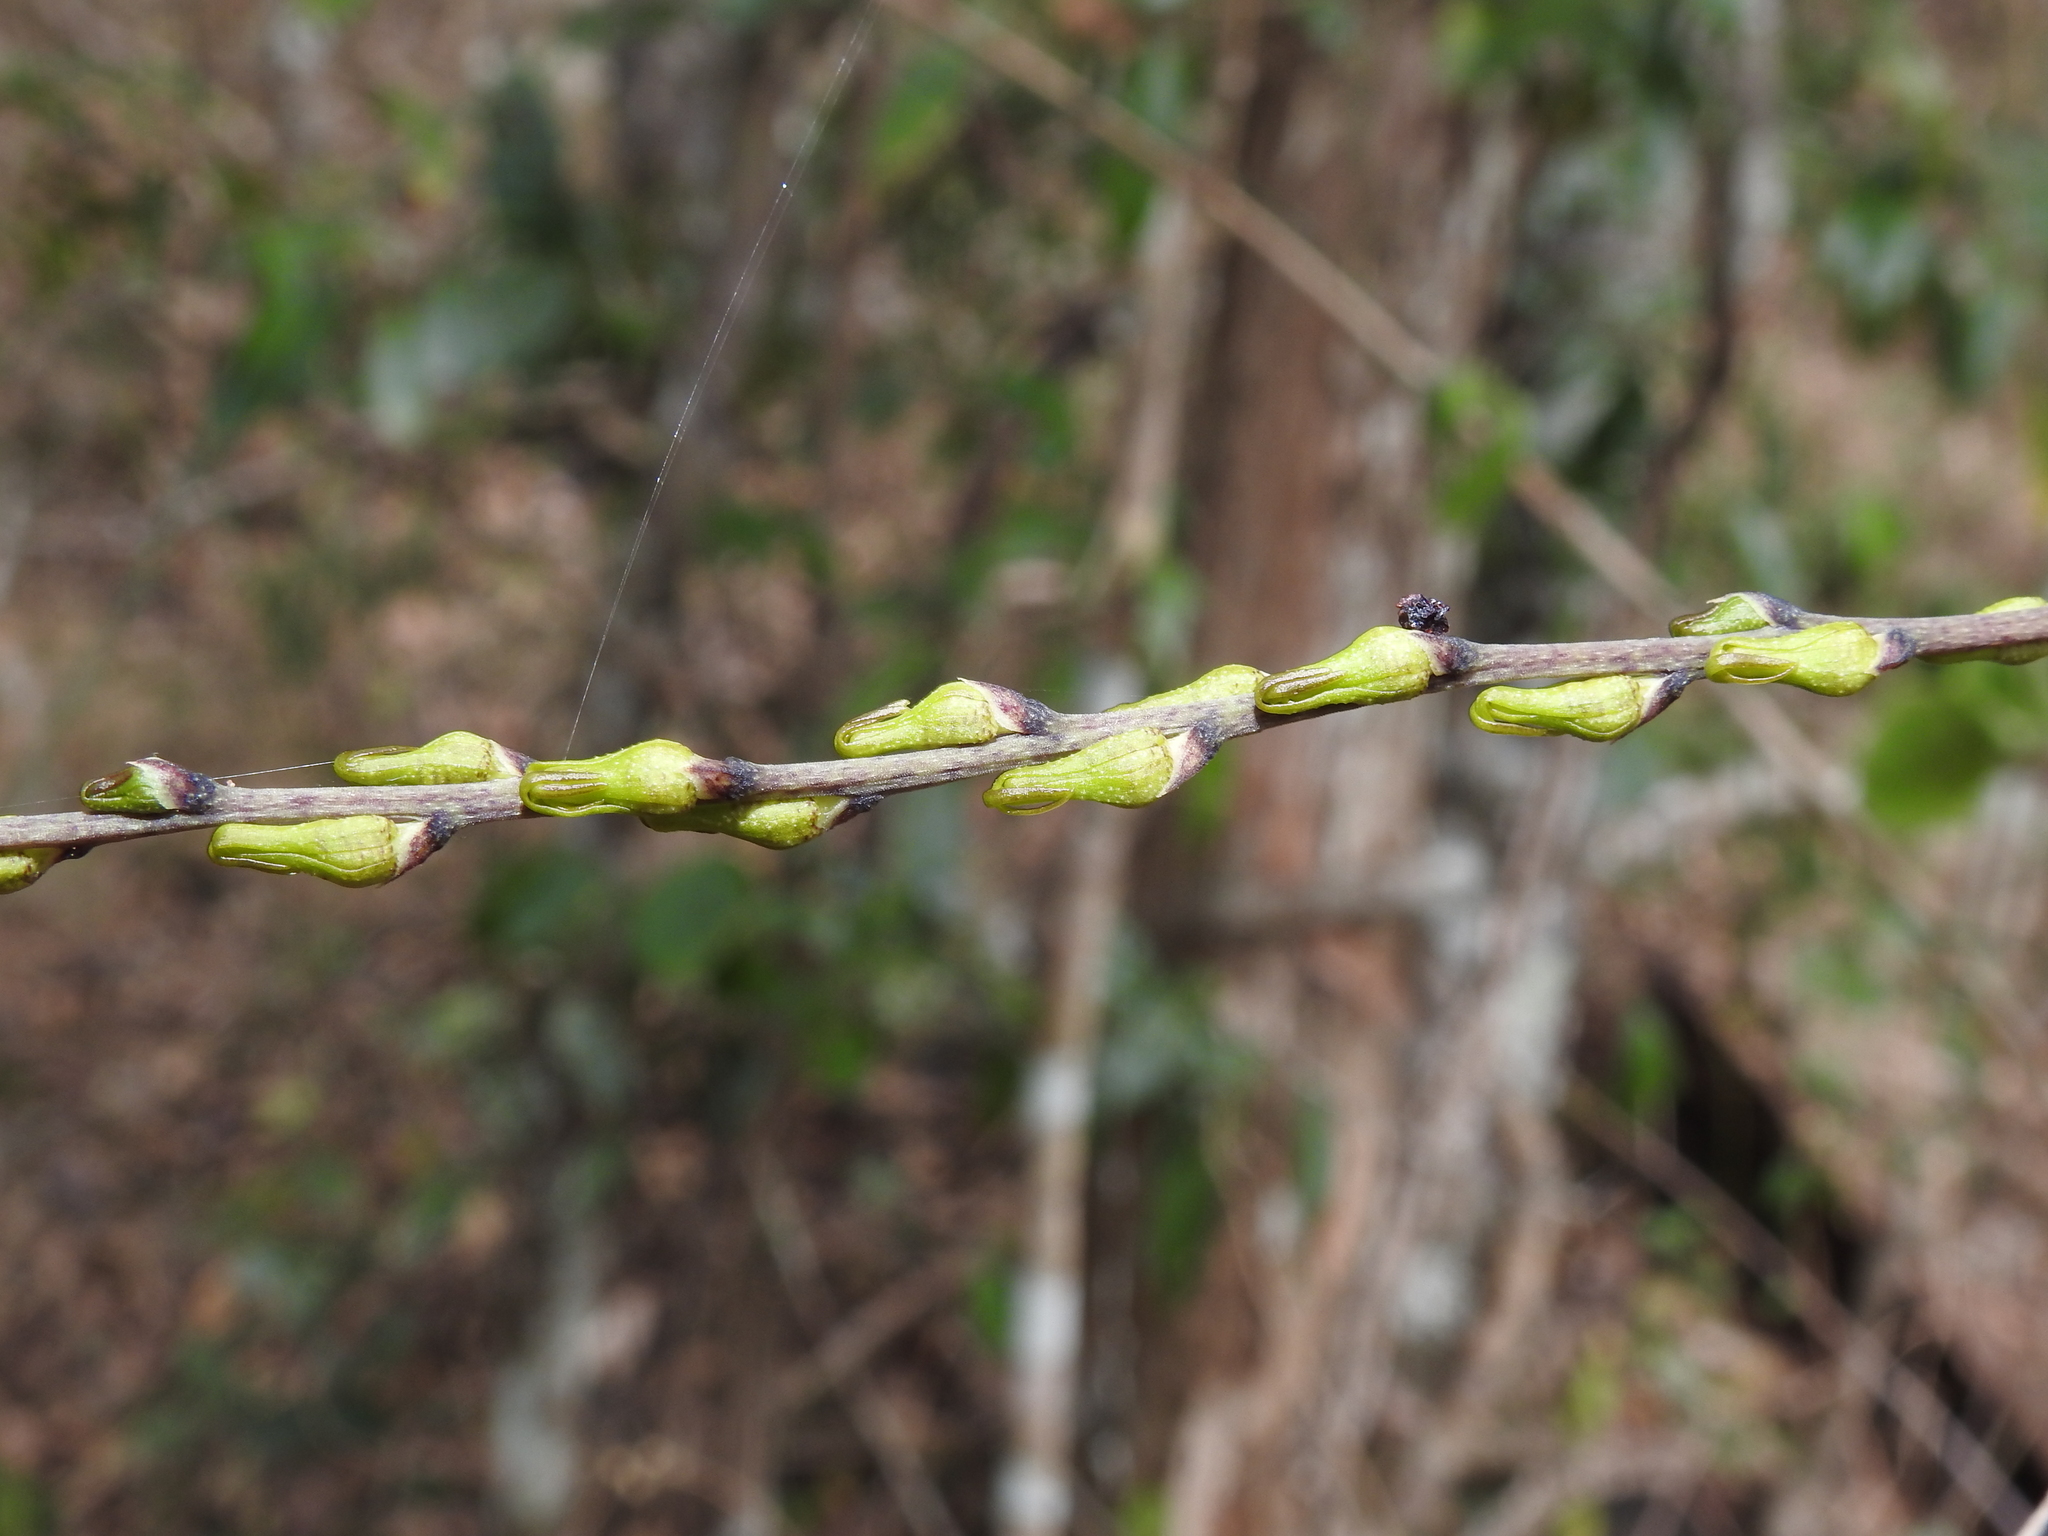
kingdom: Plantae
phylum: Tracheophyta
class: Liliopsida
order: Asparagales
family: Orchidaceae
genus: Rhinerrhiza
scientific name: Rhinerrhiza divitiflora
